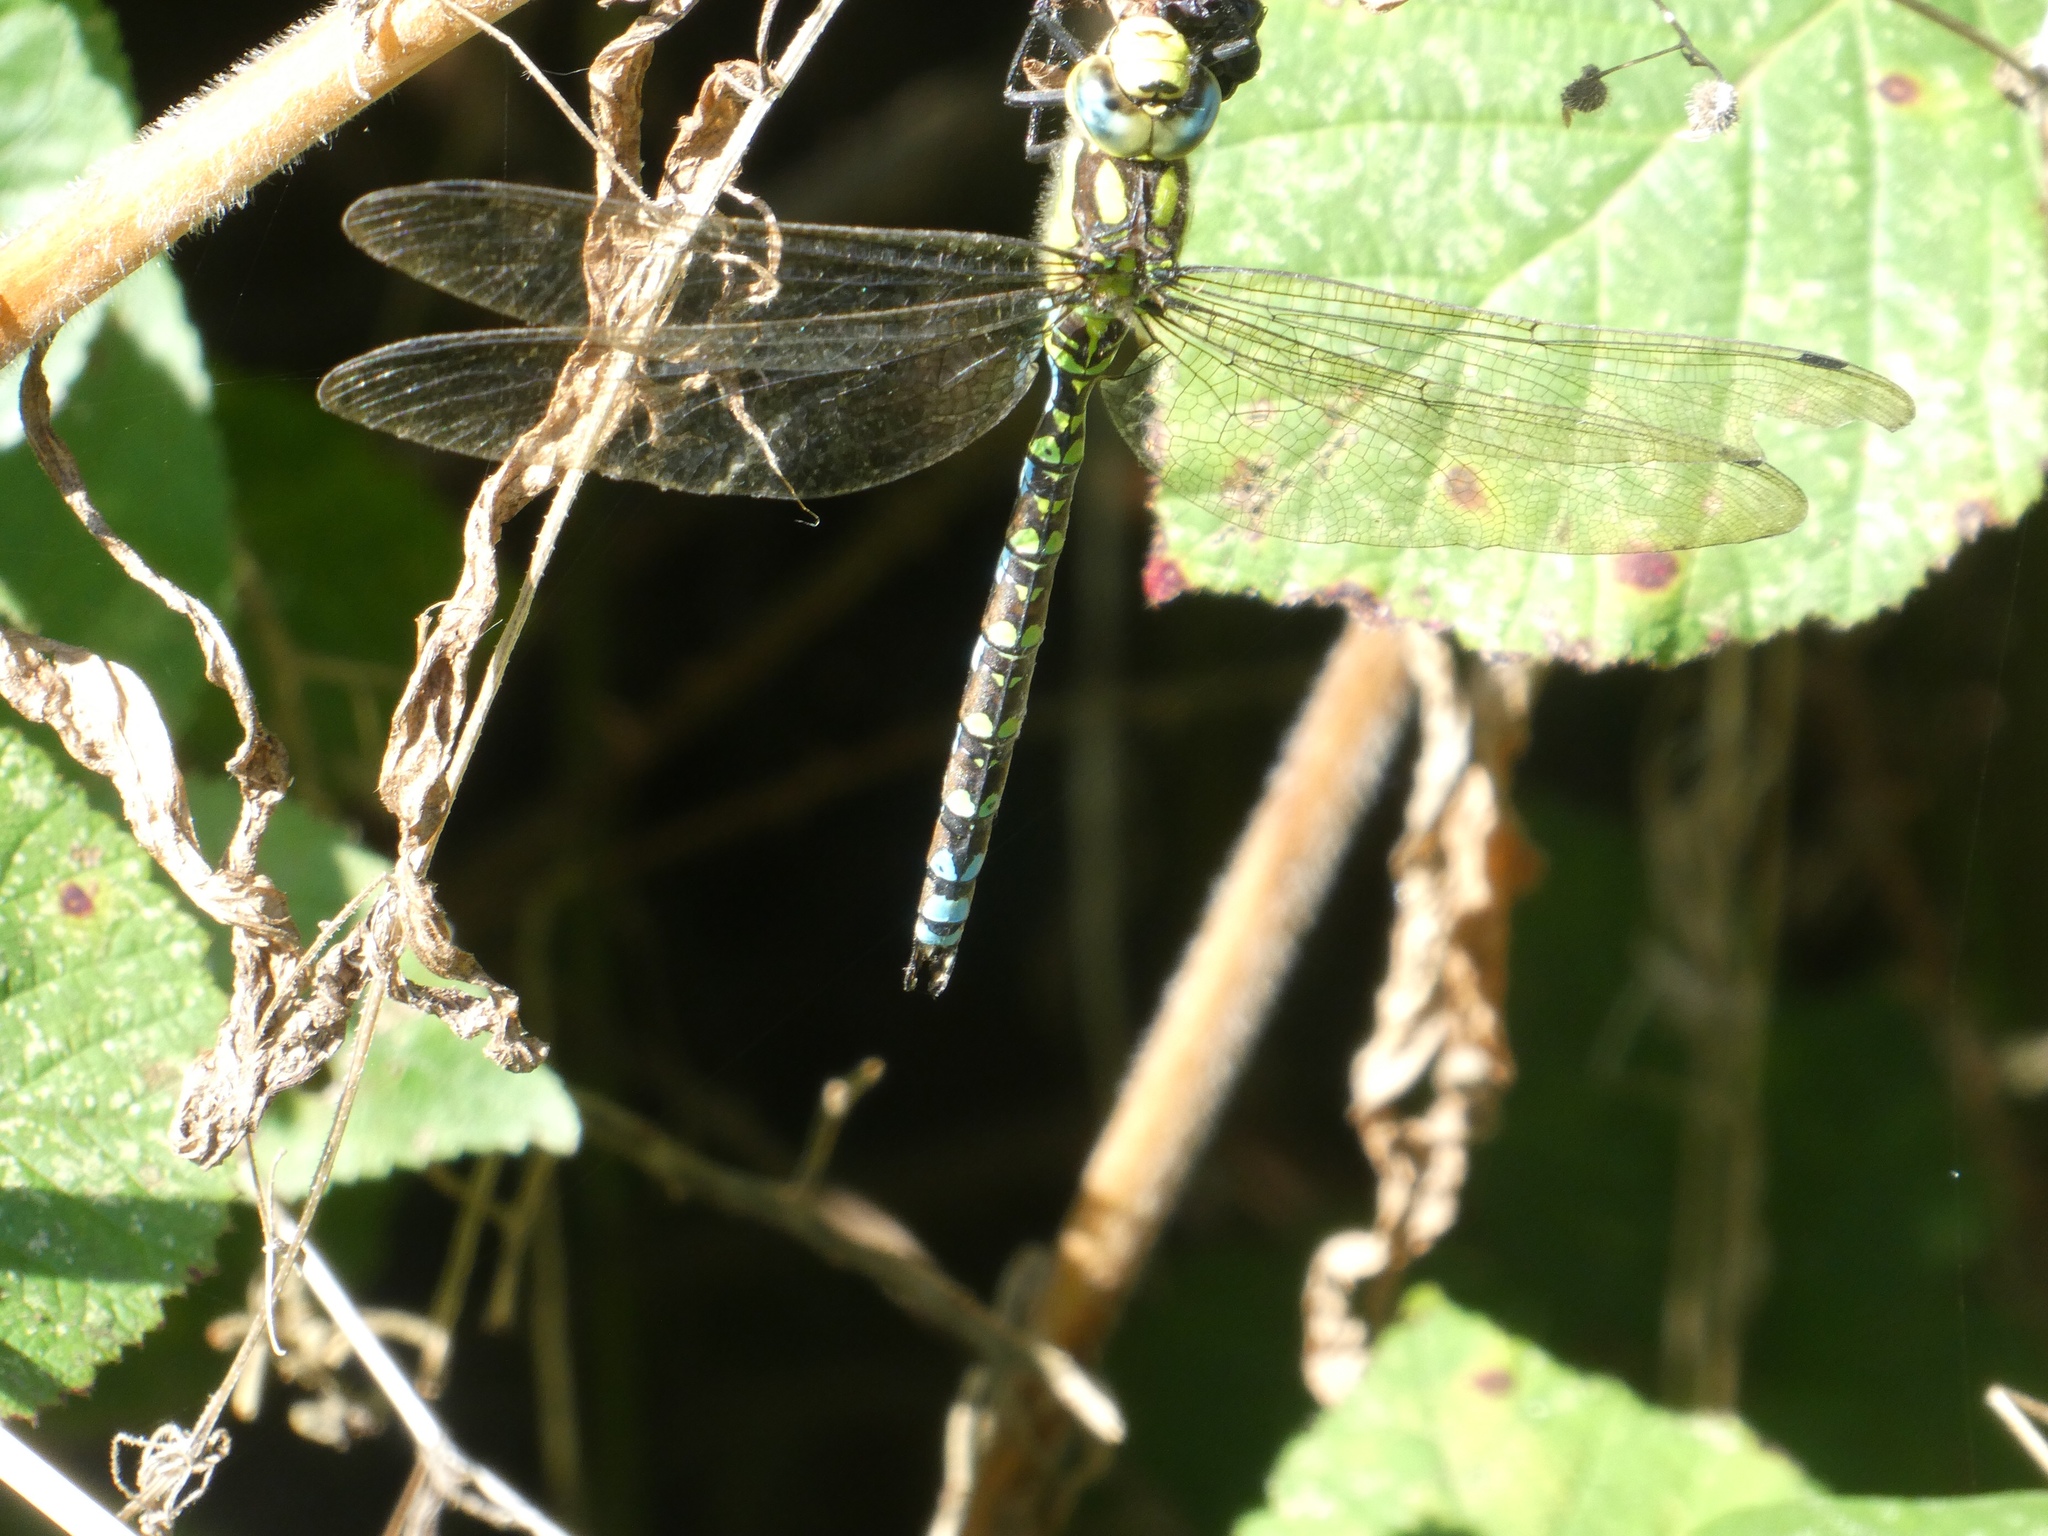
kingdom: Animalia
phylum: Arthropoda
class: Insecta
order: Odonata
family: Aeshnidae
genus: Aeshna
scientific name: Aeshna cyanea
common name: Southern hawker
